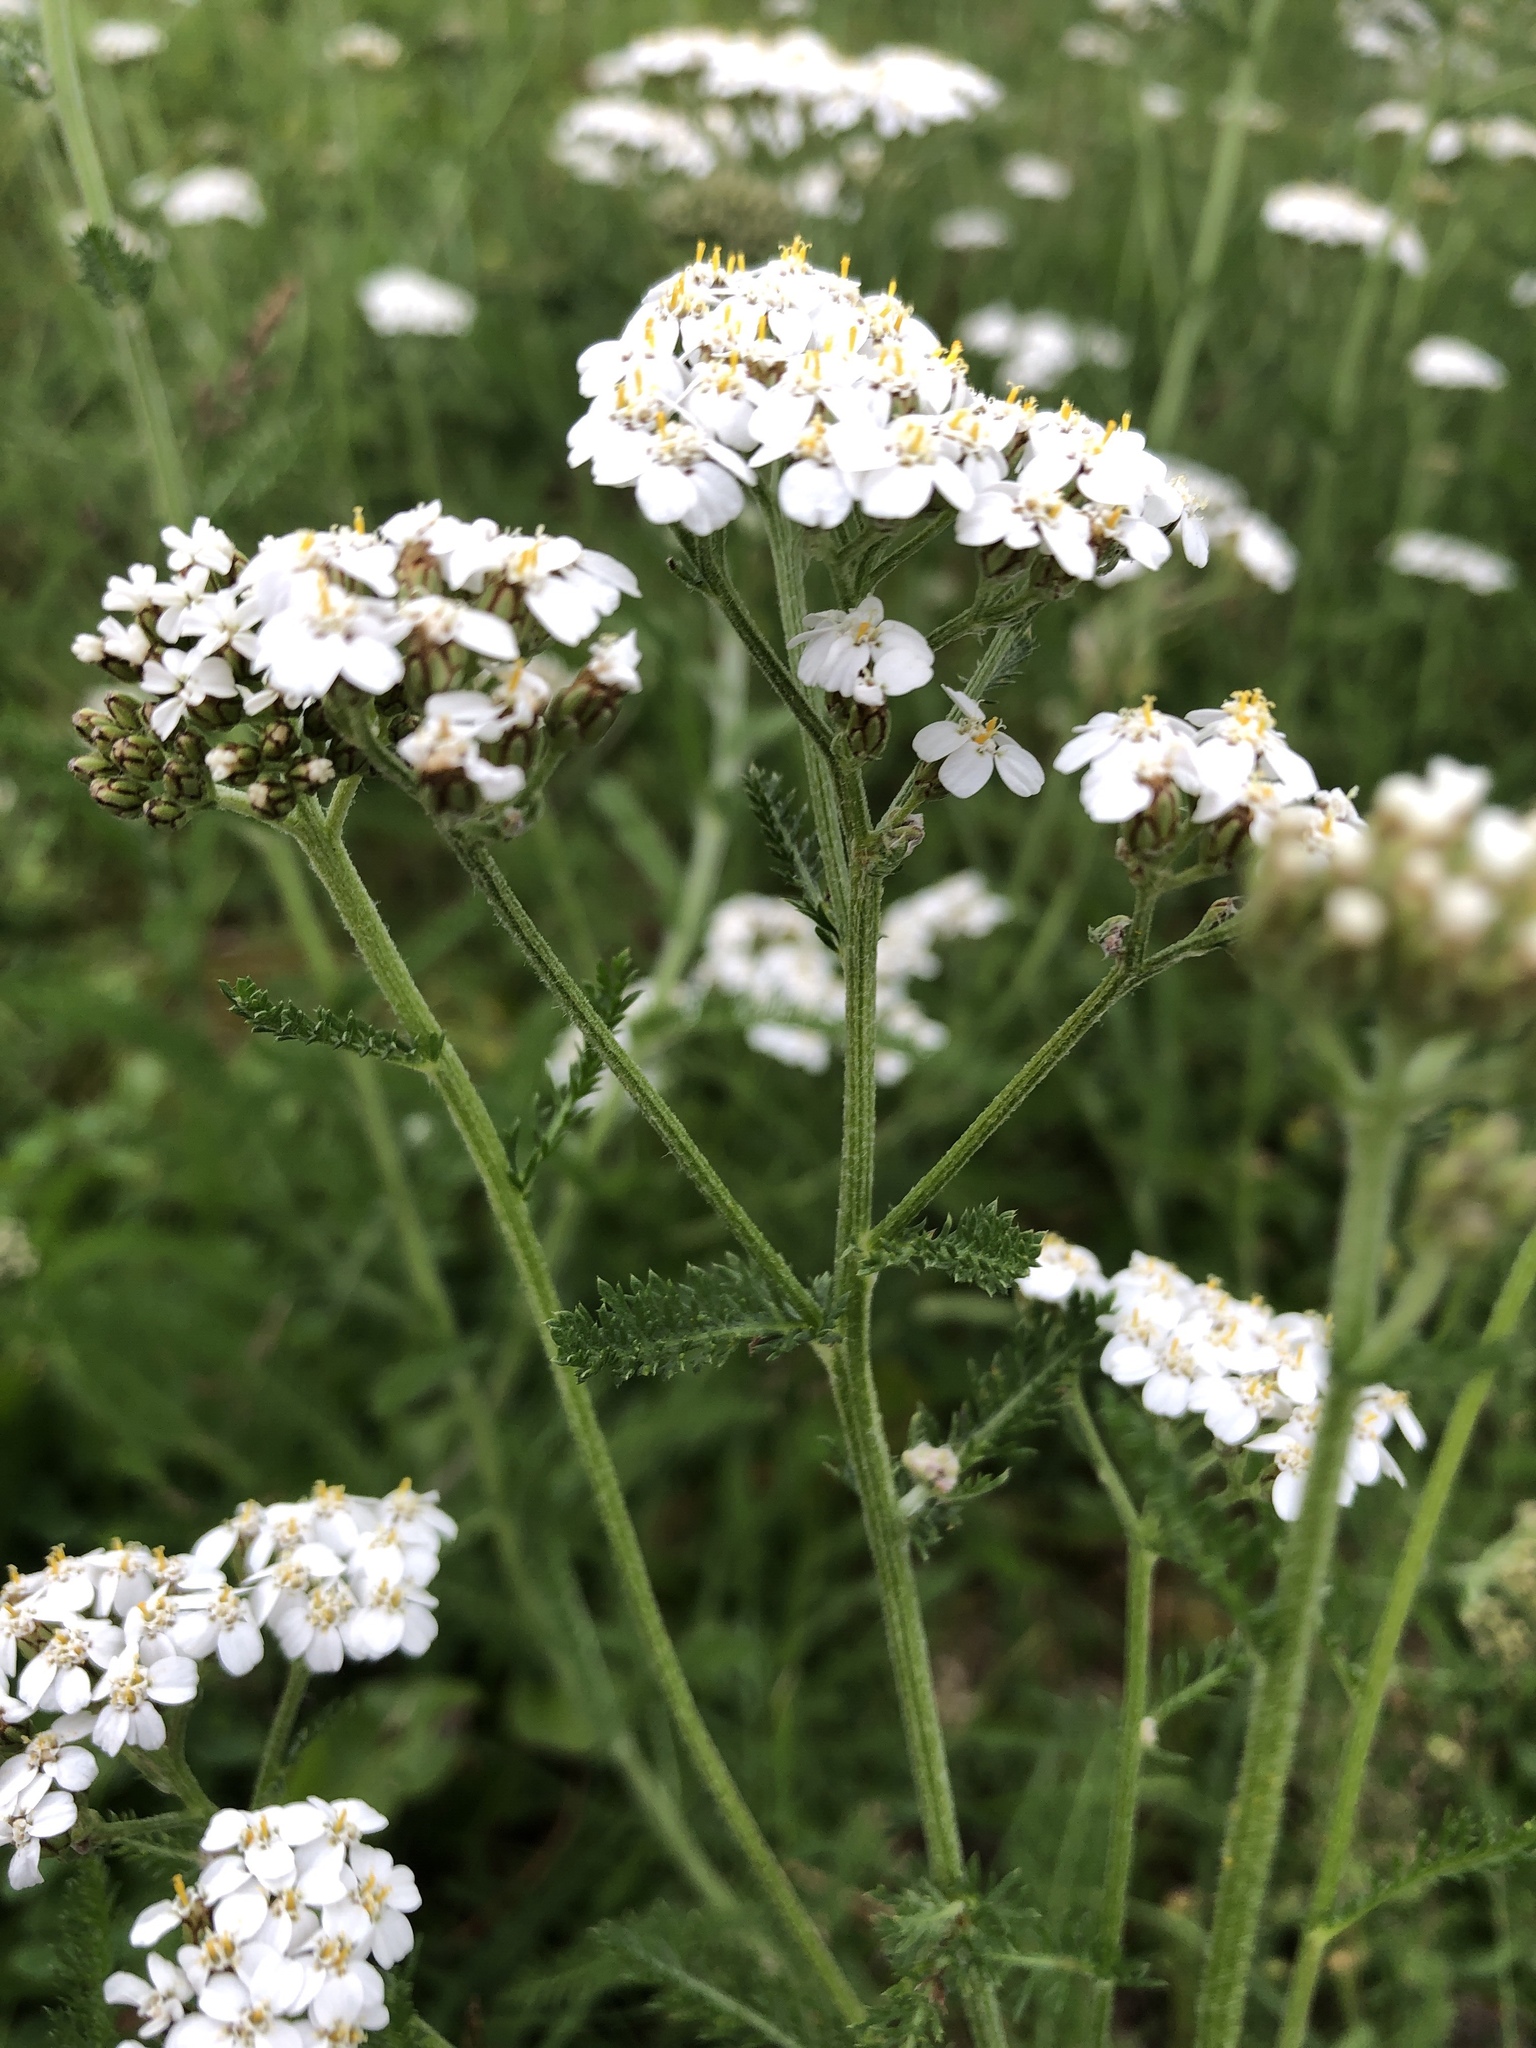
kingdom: Plantae
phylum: Tracheophyta
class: Magnoliopsida
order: Asterales
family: Asteraceae
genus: Achillea
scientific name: Achillea millefolium
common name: Yarrow
